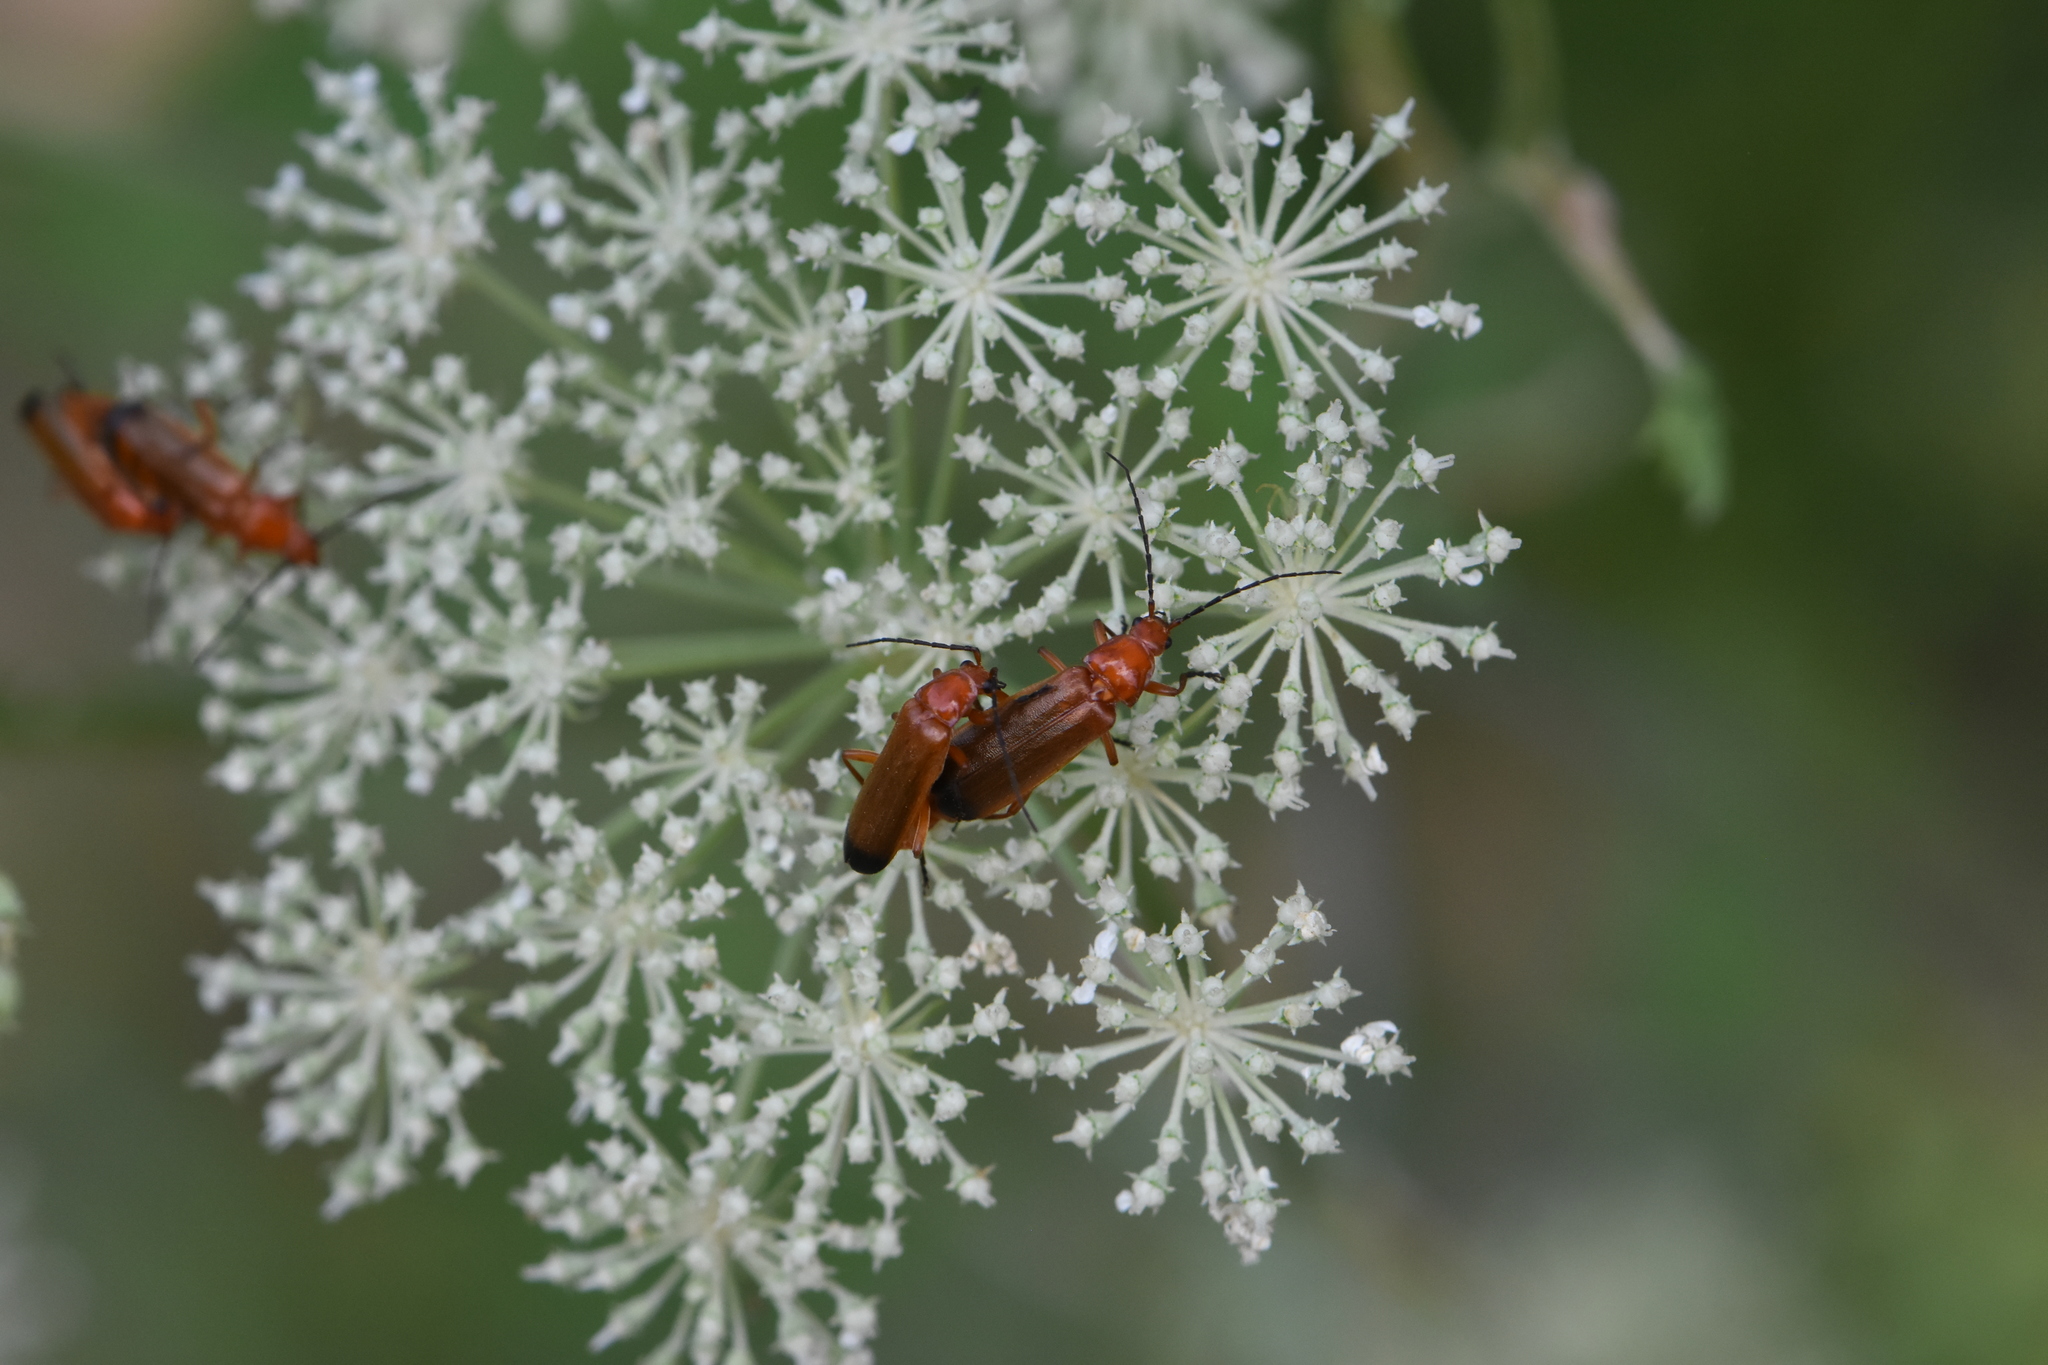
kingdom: Animalia
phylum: Arthropoda
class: Insecta
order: Coleoptera
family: Cantharidae
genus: Rhagonycha
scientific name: Rhagonycha fulva
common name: Common red soldier beetle
